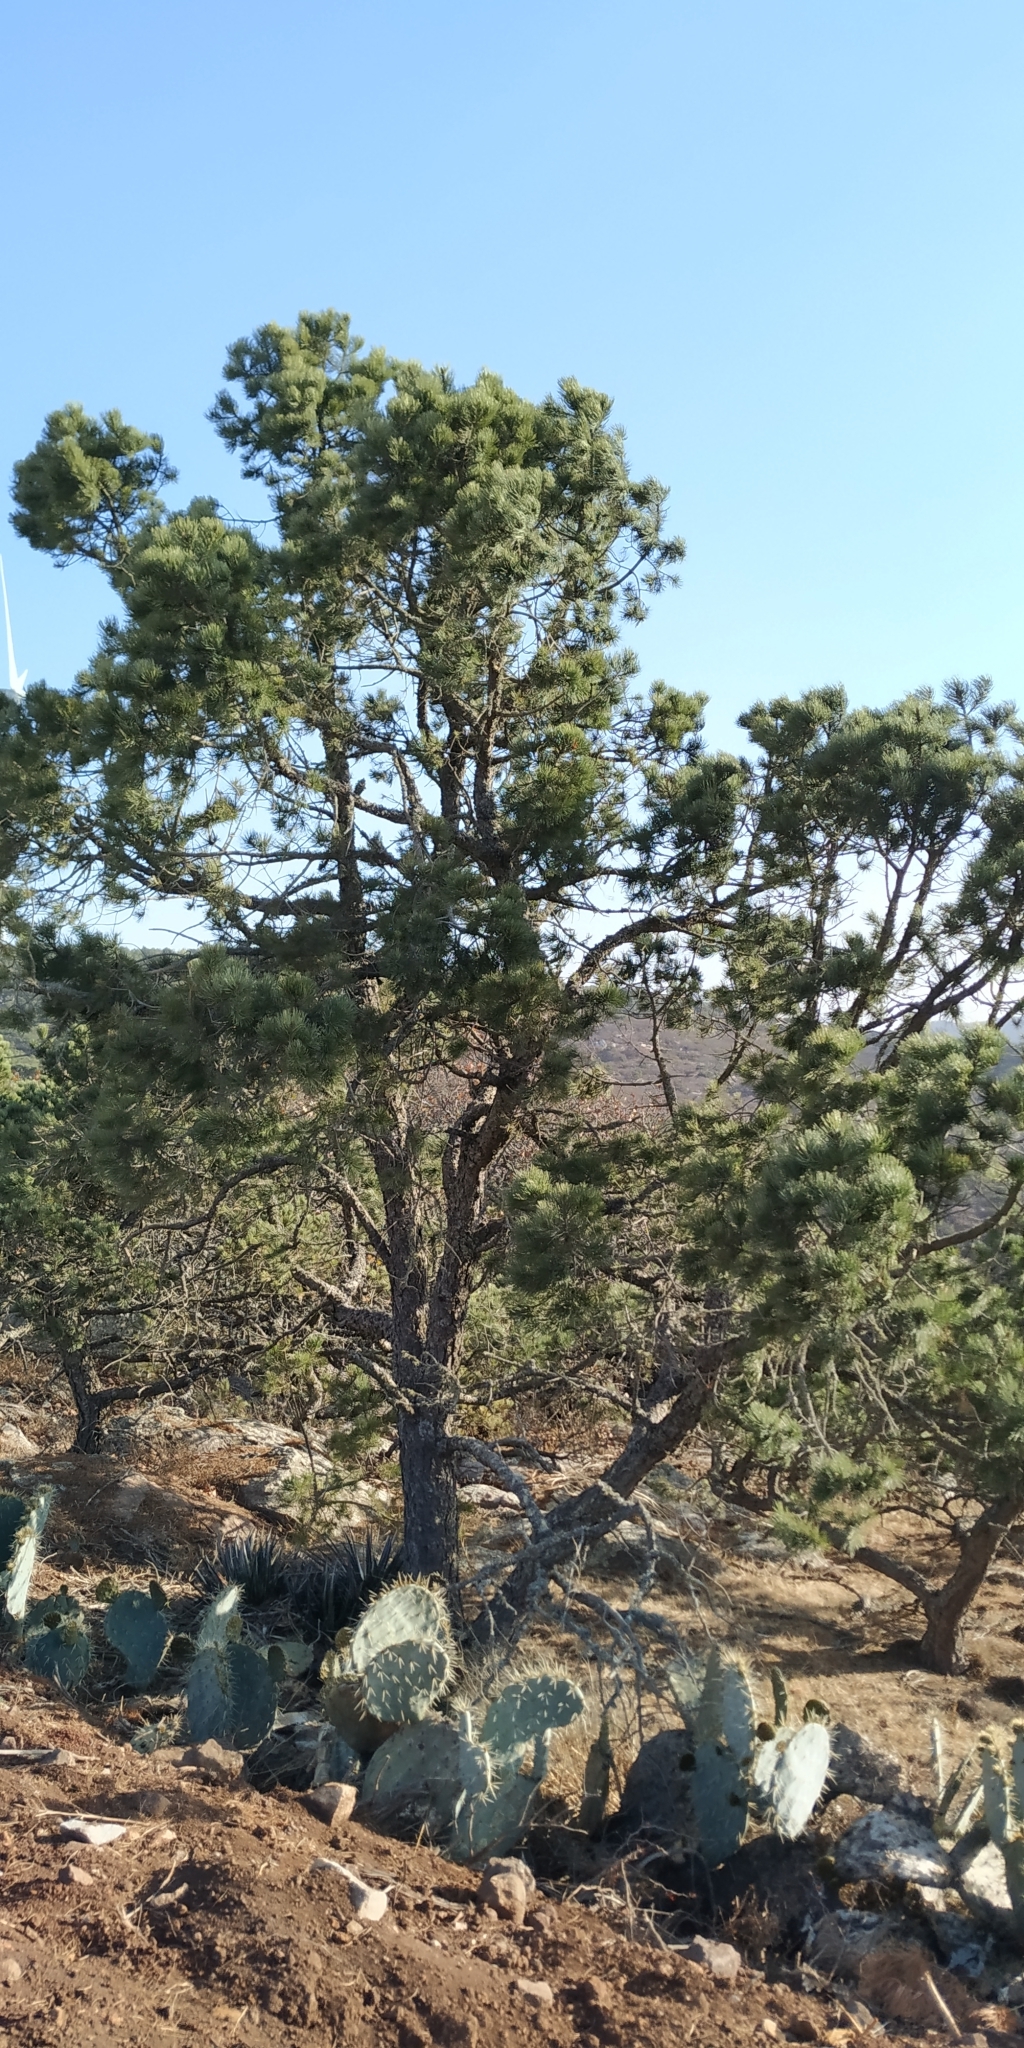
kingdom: Plantae
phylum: Tracheophyta
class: Pinopsida
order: Pinales
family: Pinaceae
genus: Pinus
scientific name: Pinus cembroides
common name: Mexican nut pine
